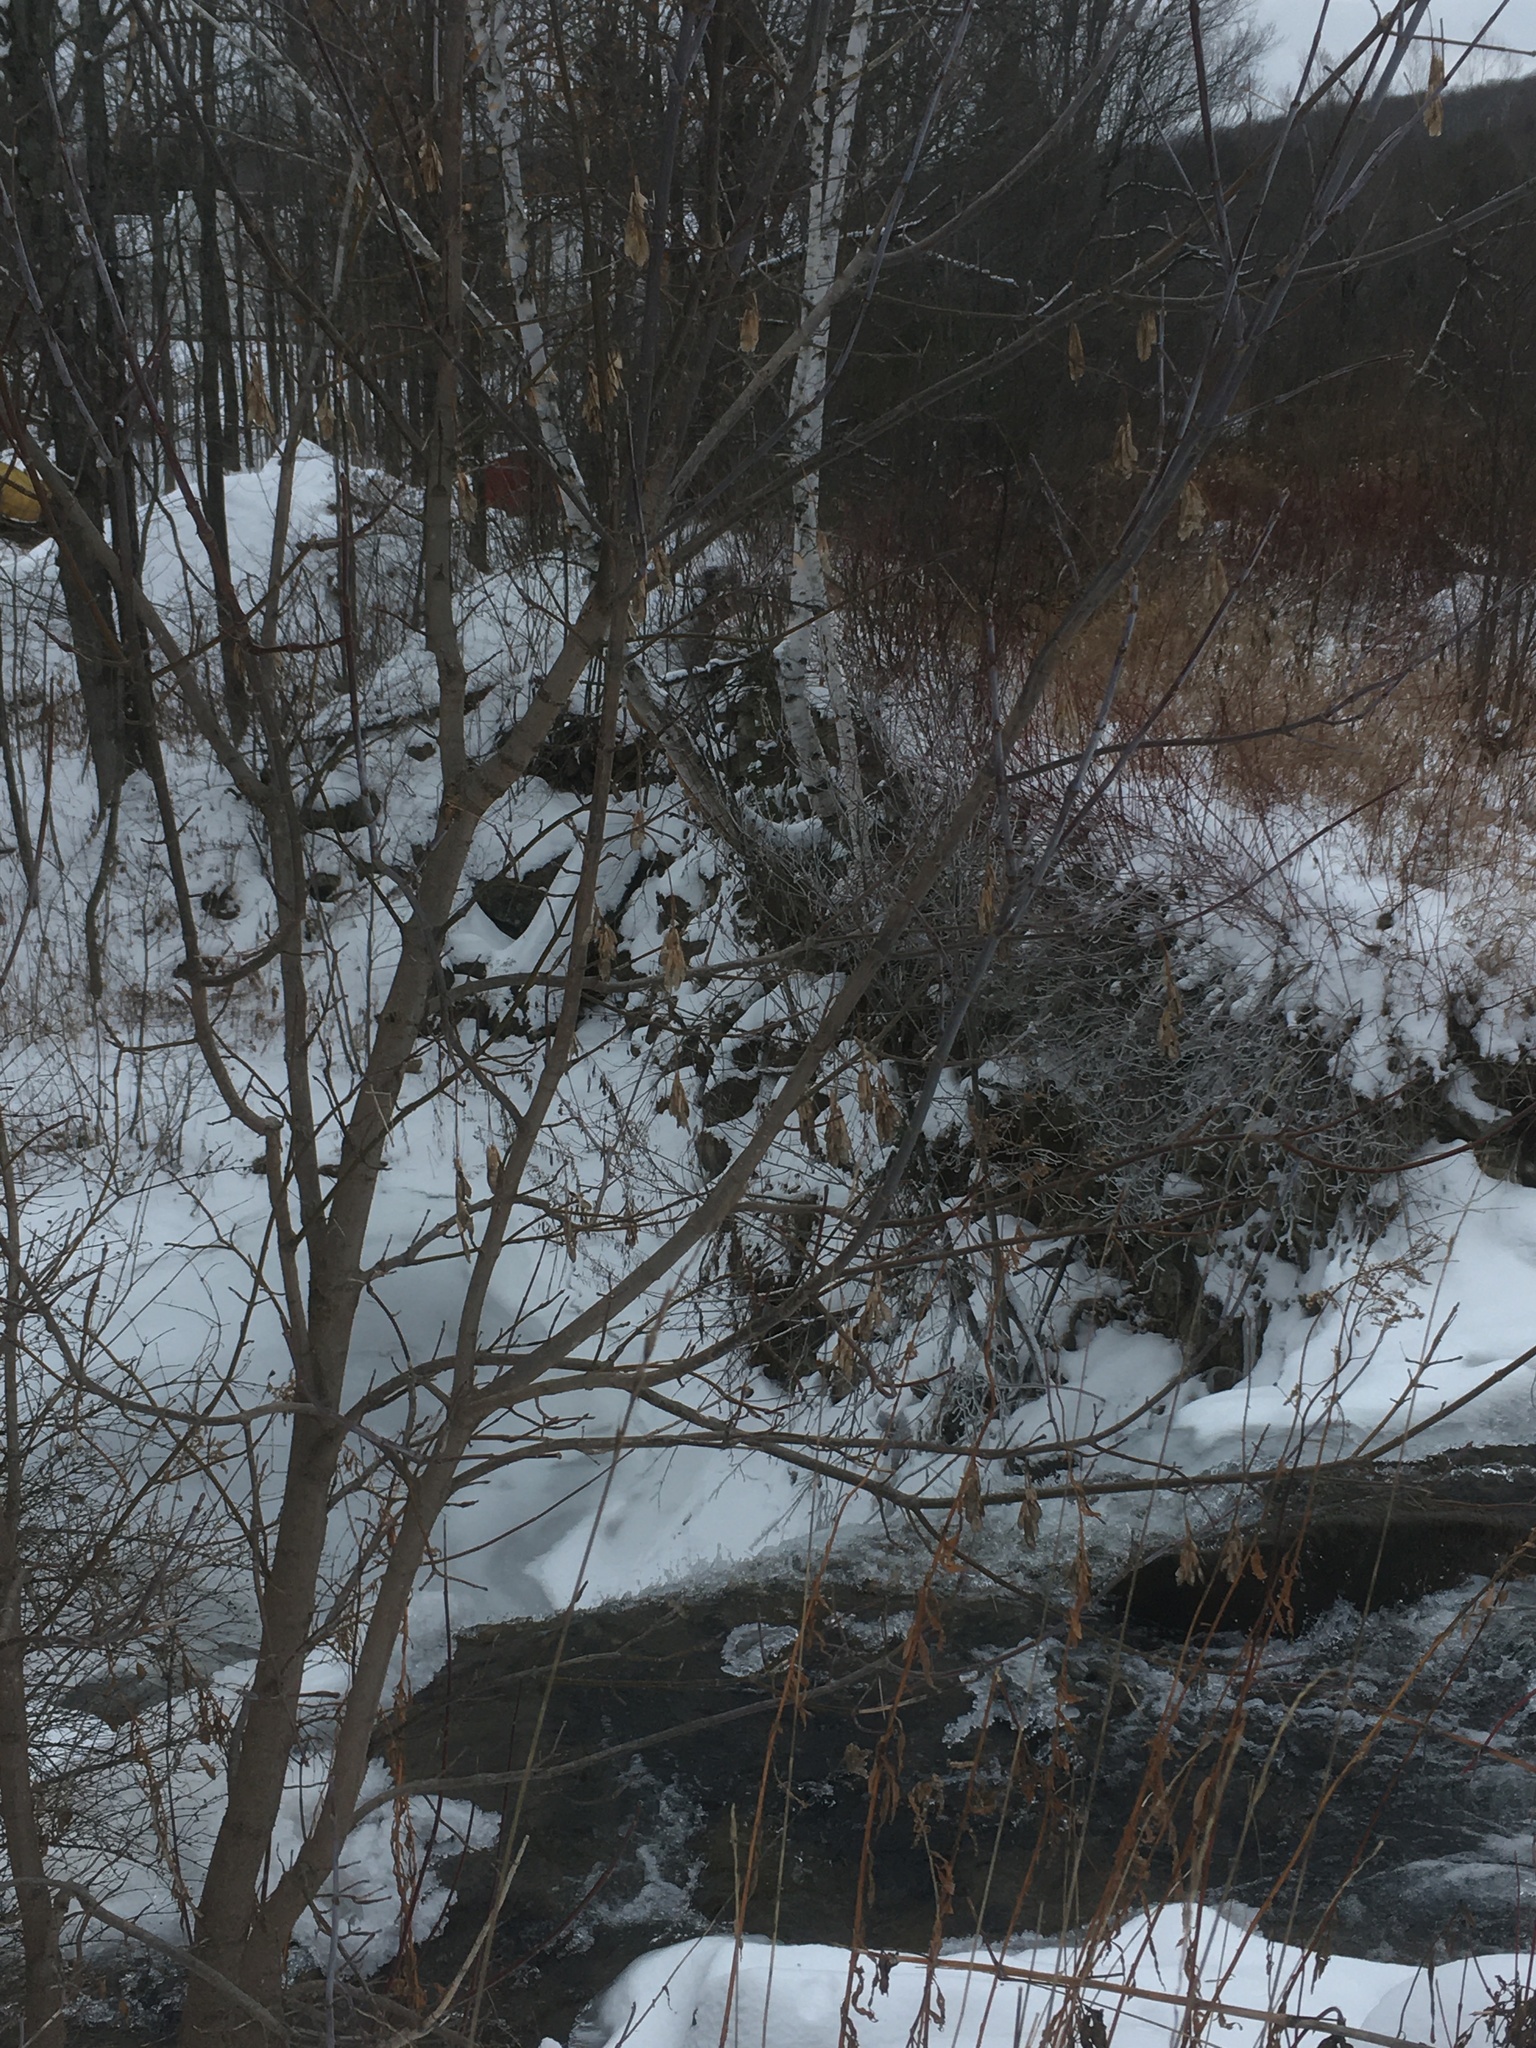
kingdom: Plantae
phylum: Tracheophyta
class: Magnoliopsida
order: Sapindales
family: Sapindaceae
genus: Acer
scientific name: Acer negundo
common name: Ashleaf maple
